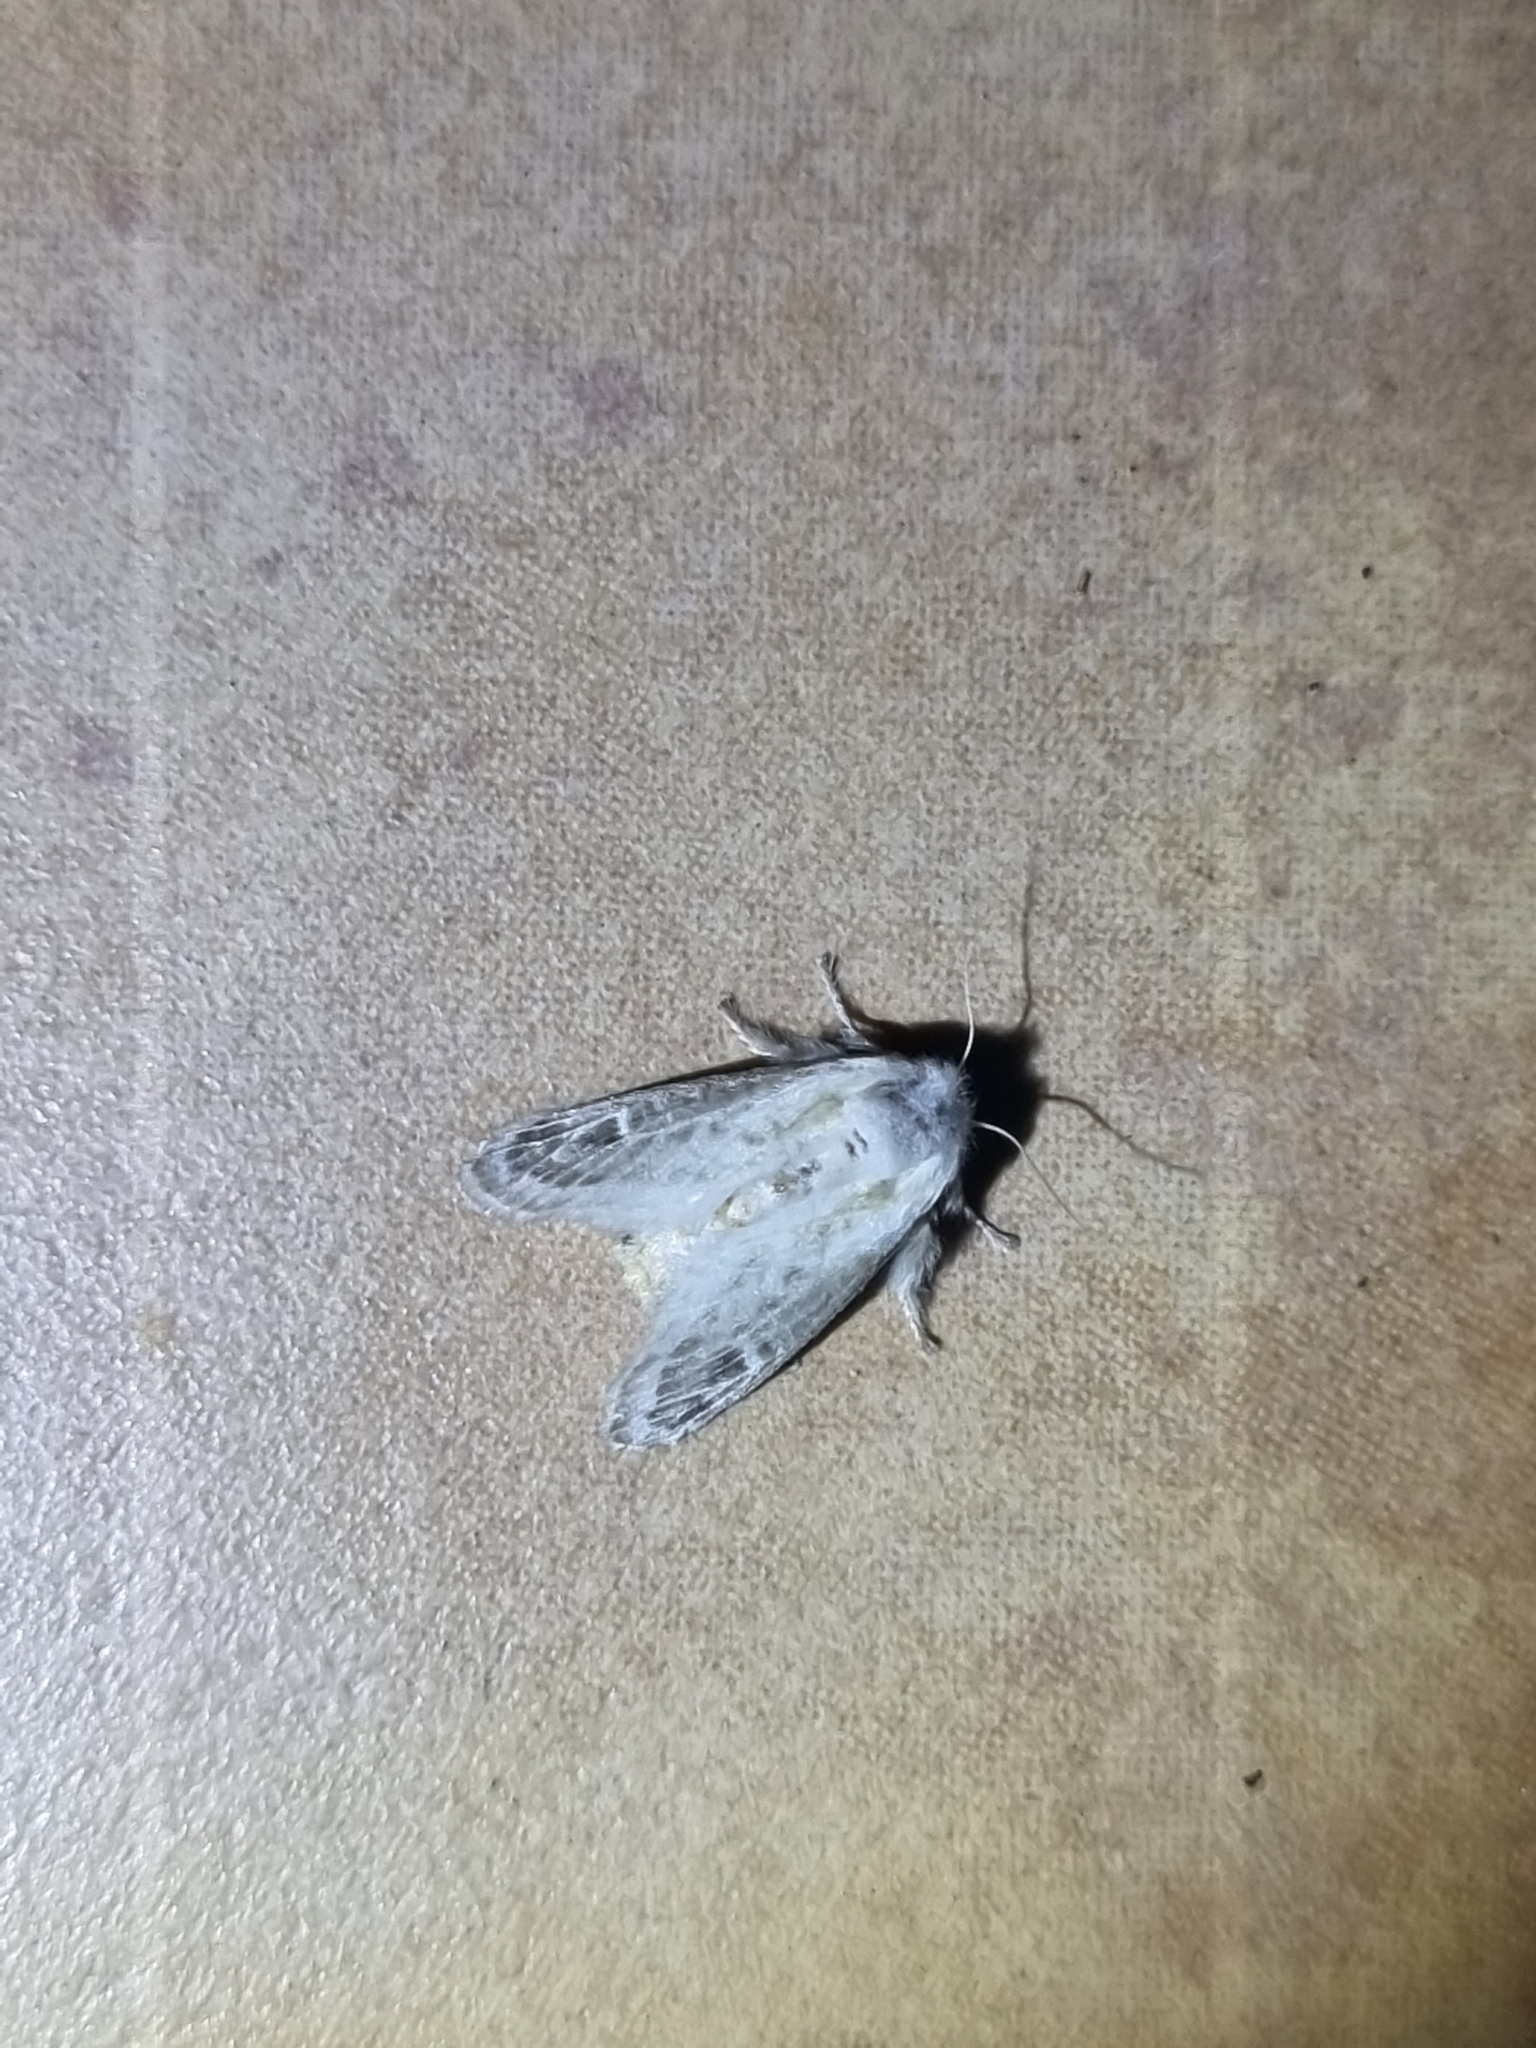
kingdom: Animalia
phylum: Arthropoda
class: Insecta
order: Lepidoptera
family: Limacodidae
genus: Doratifera
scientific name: Doratifera pinguis
